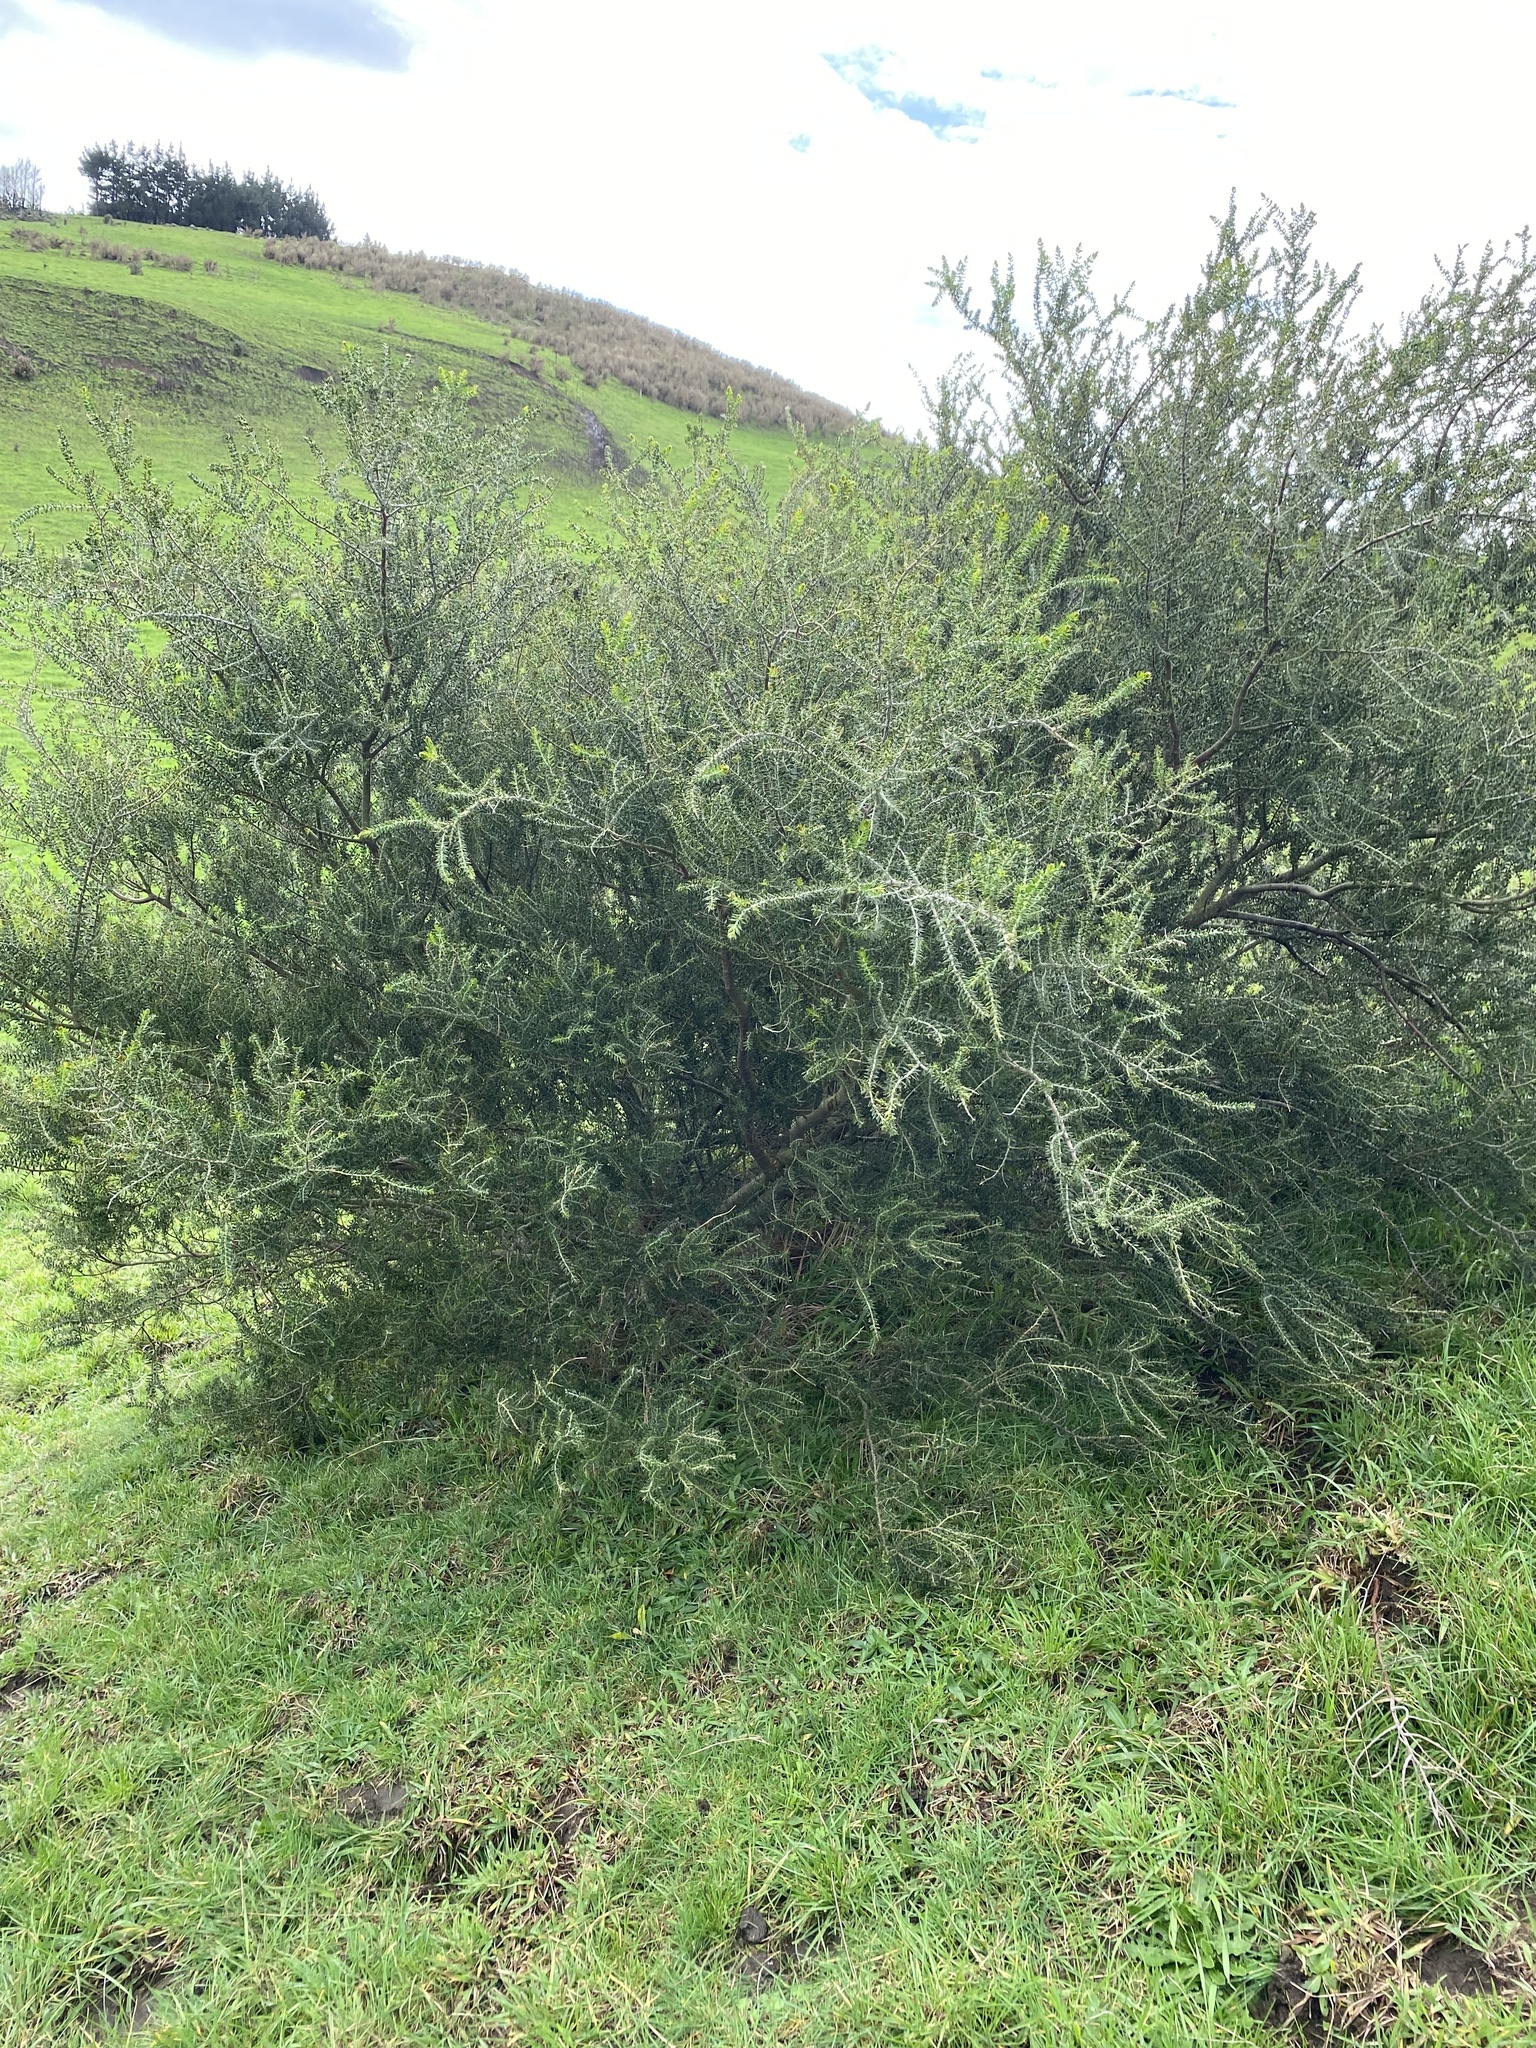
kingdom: Plantae
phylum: Tracheophyta
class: Magnoliopsida
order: Fabales
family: Fabaceae
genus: Acacia
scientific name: Acacia verticillata
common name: Prickly moses
